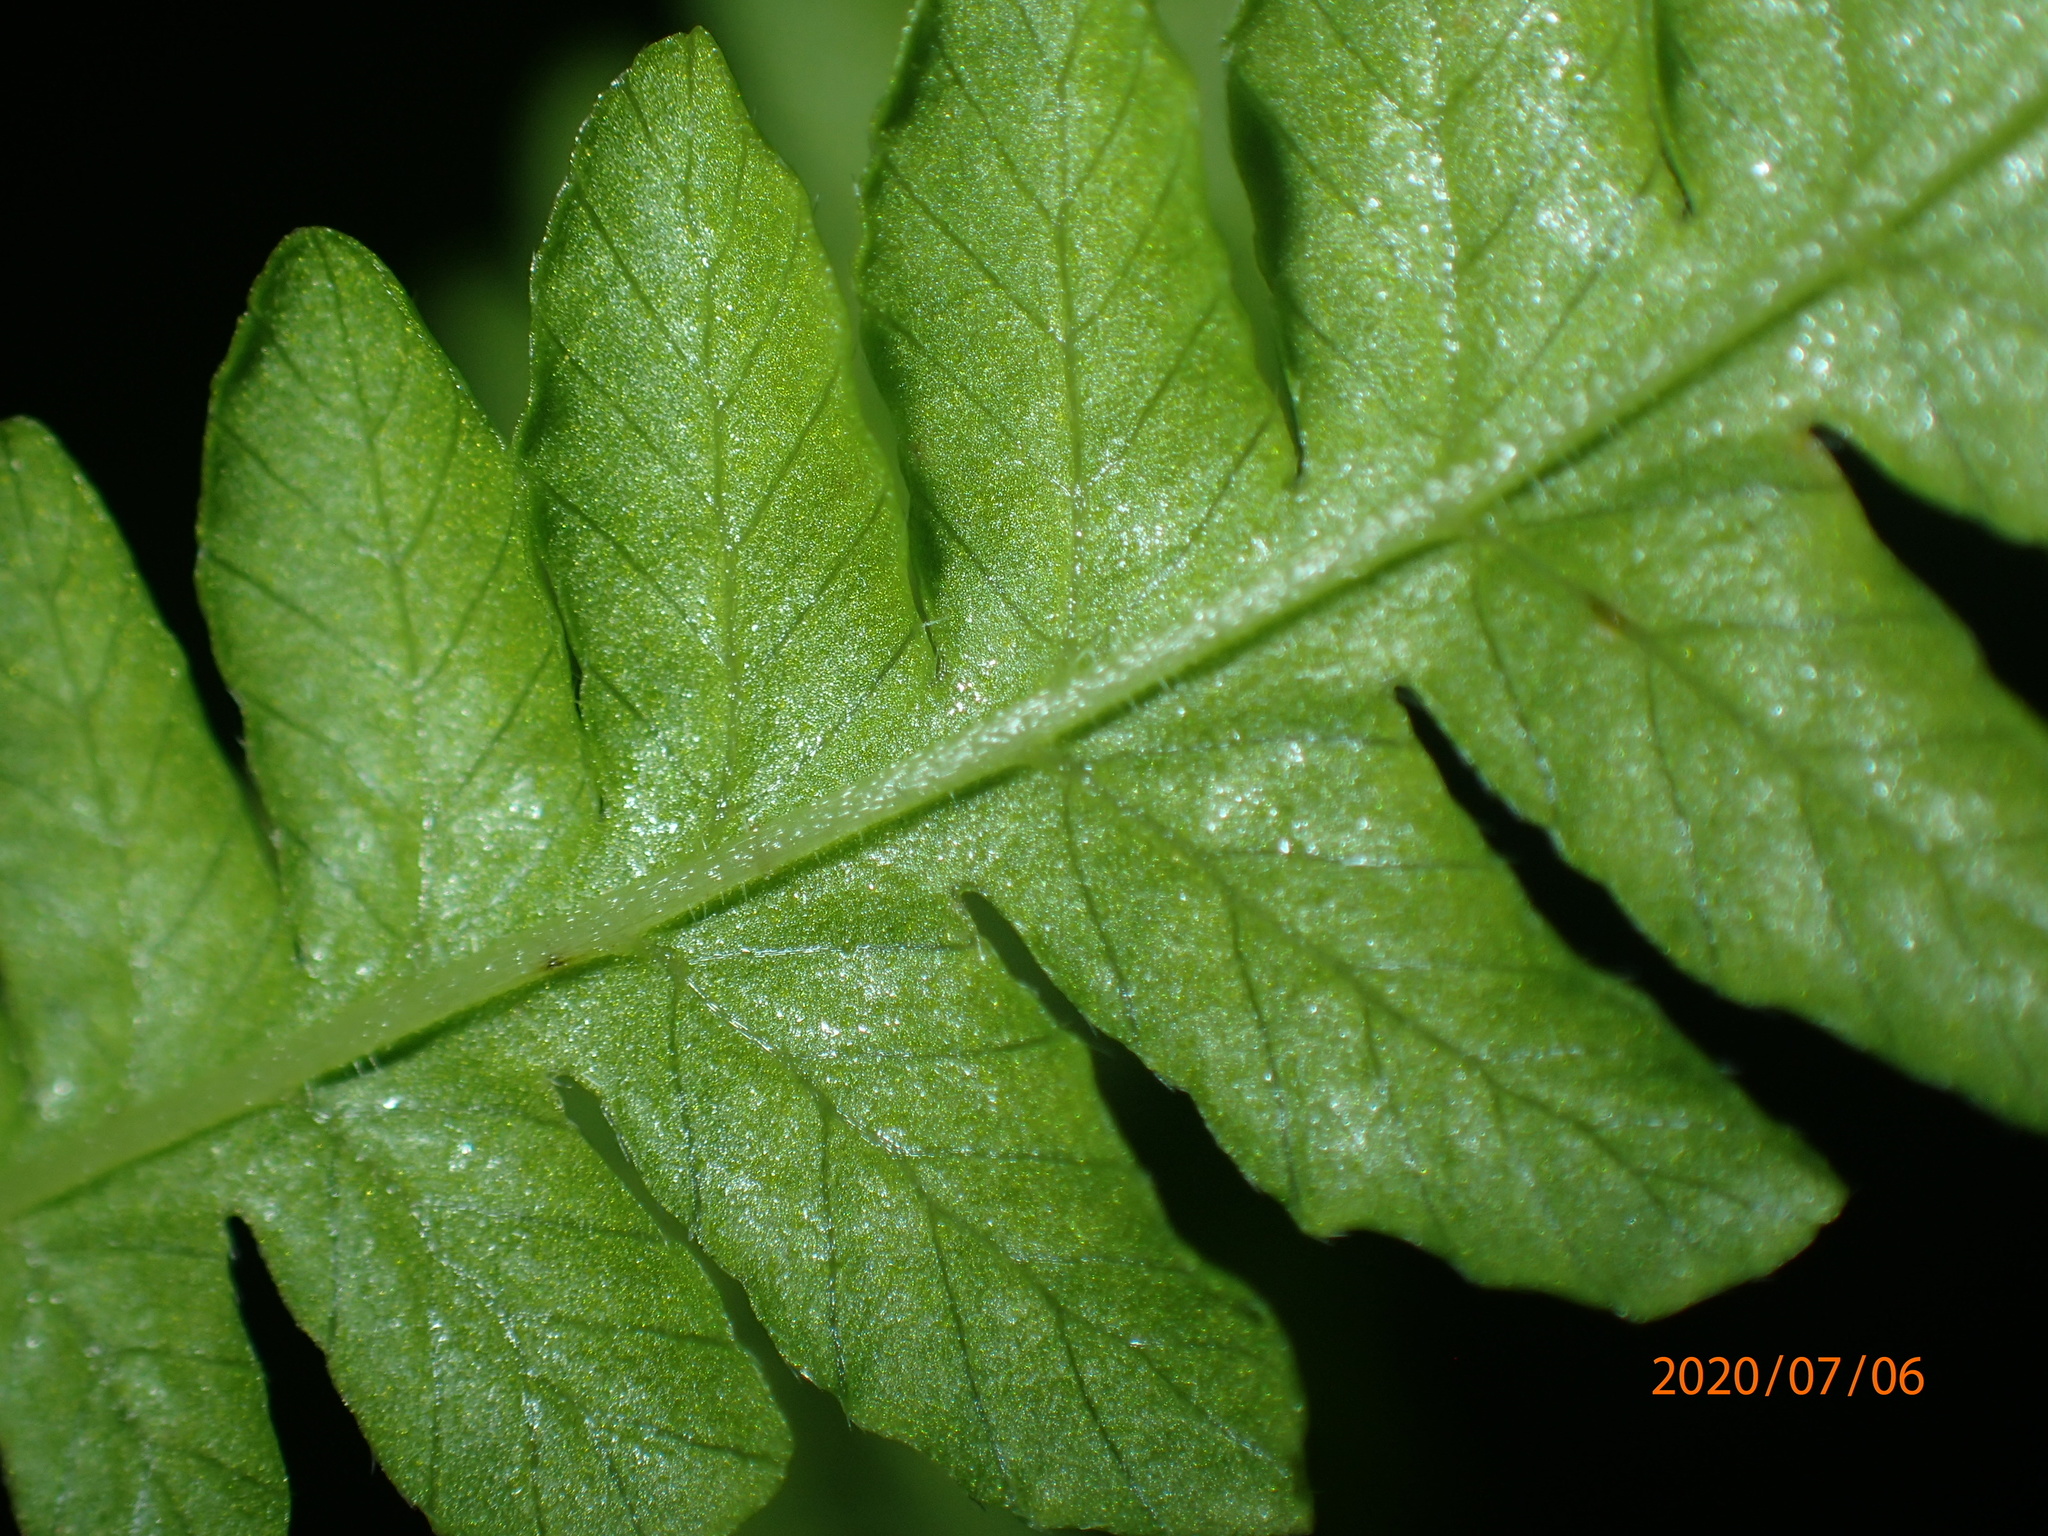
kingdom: Plantae
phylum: Tracheophyta
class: Polypodiopsida
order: Polypodiales
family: Thelypteridaceae
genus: Coryphopteris
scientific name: Coryphopteris simulata
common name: Bog fern
